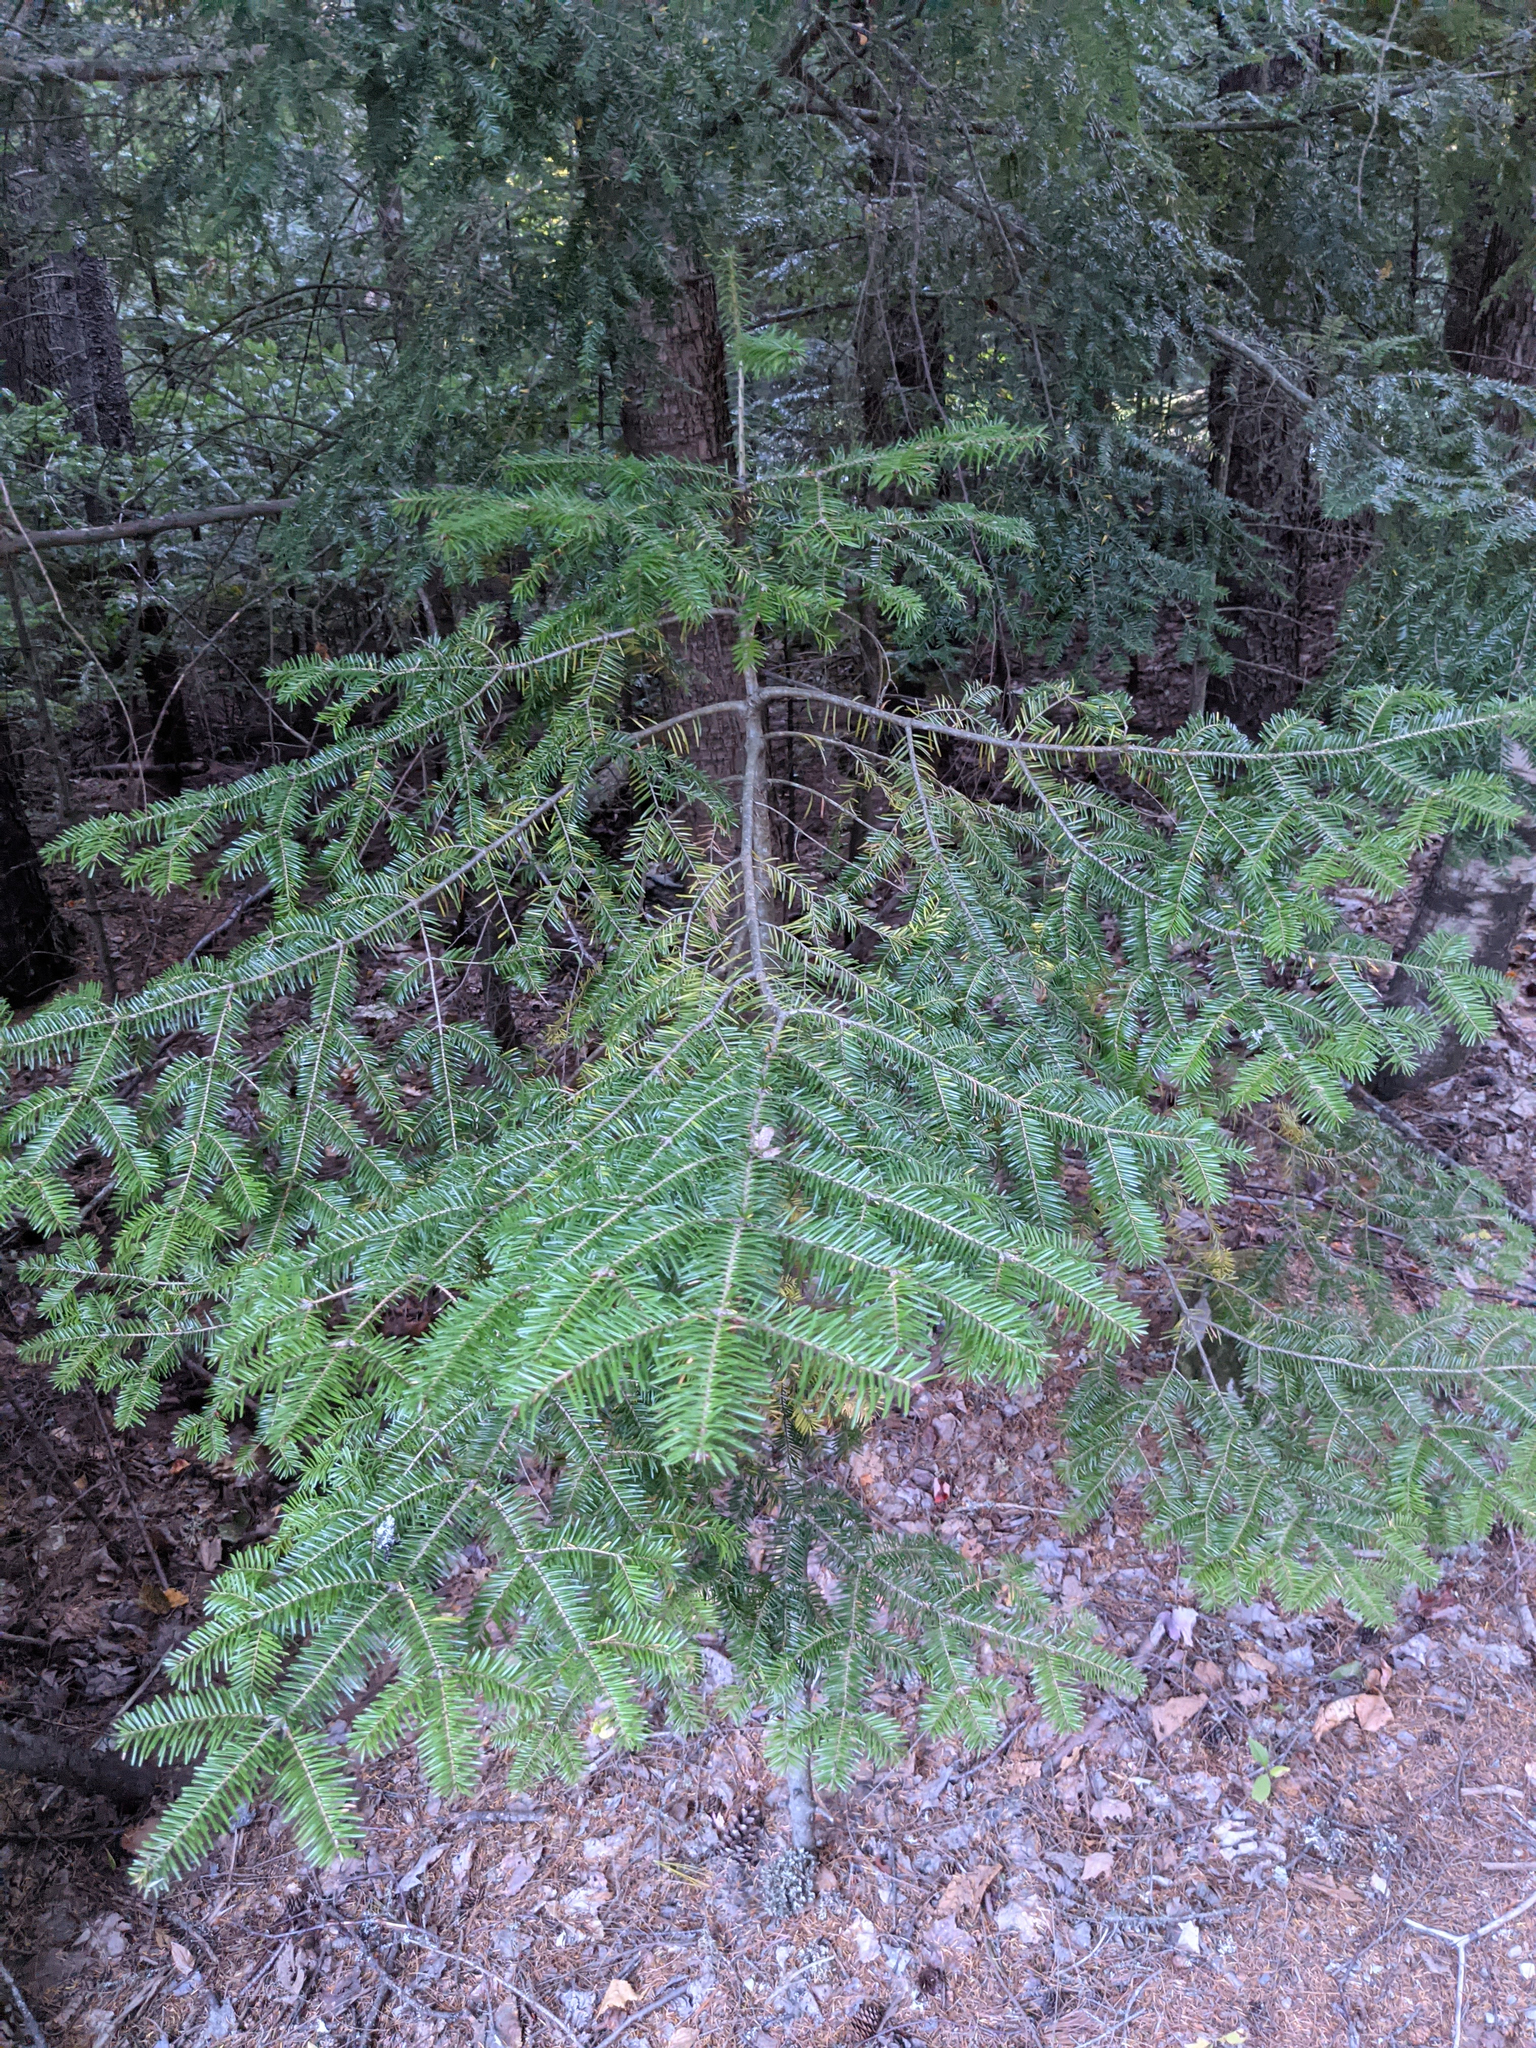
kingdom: Plantae
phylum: Tracheophyta
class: Pinopsida
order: Pinales
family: Pinaceae
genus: Abies
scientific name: Abies balsamea
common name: Balsam fir
